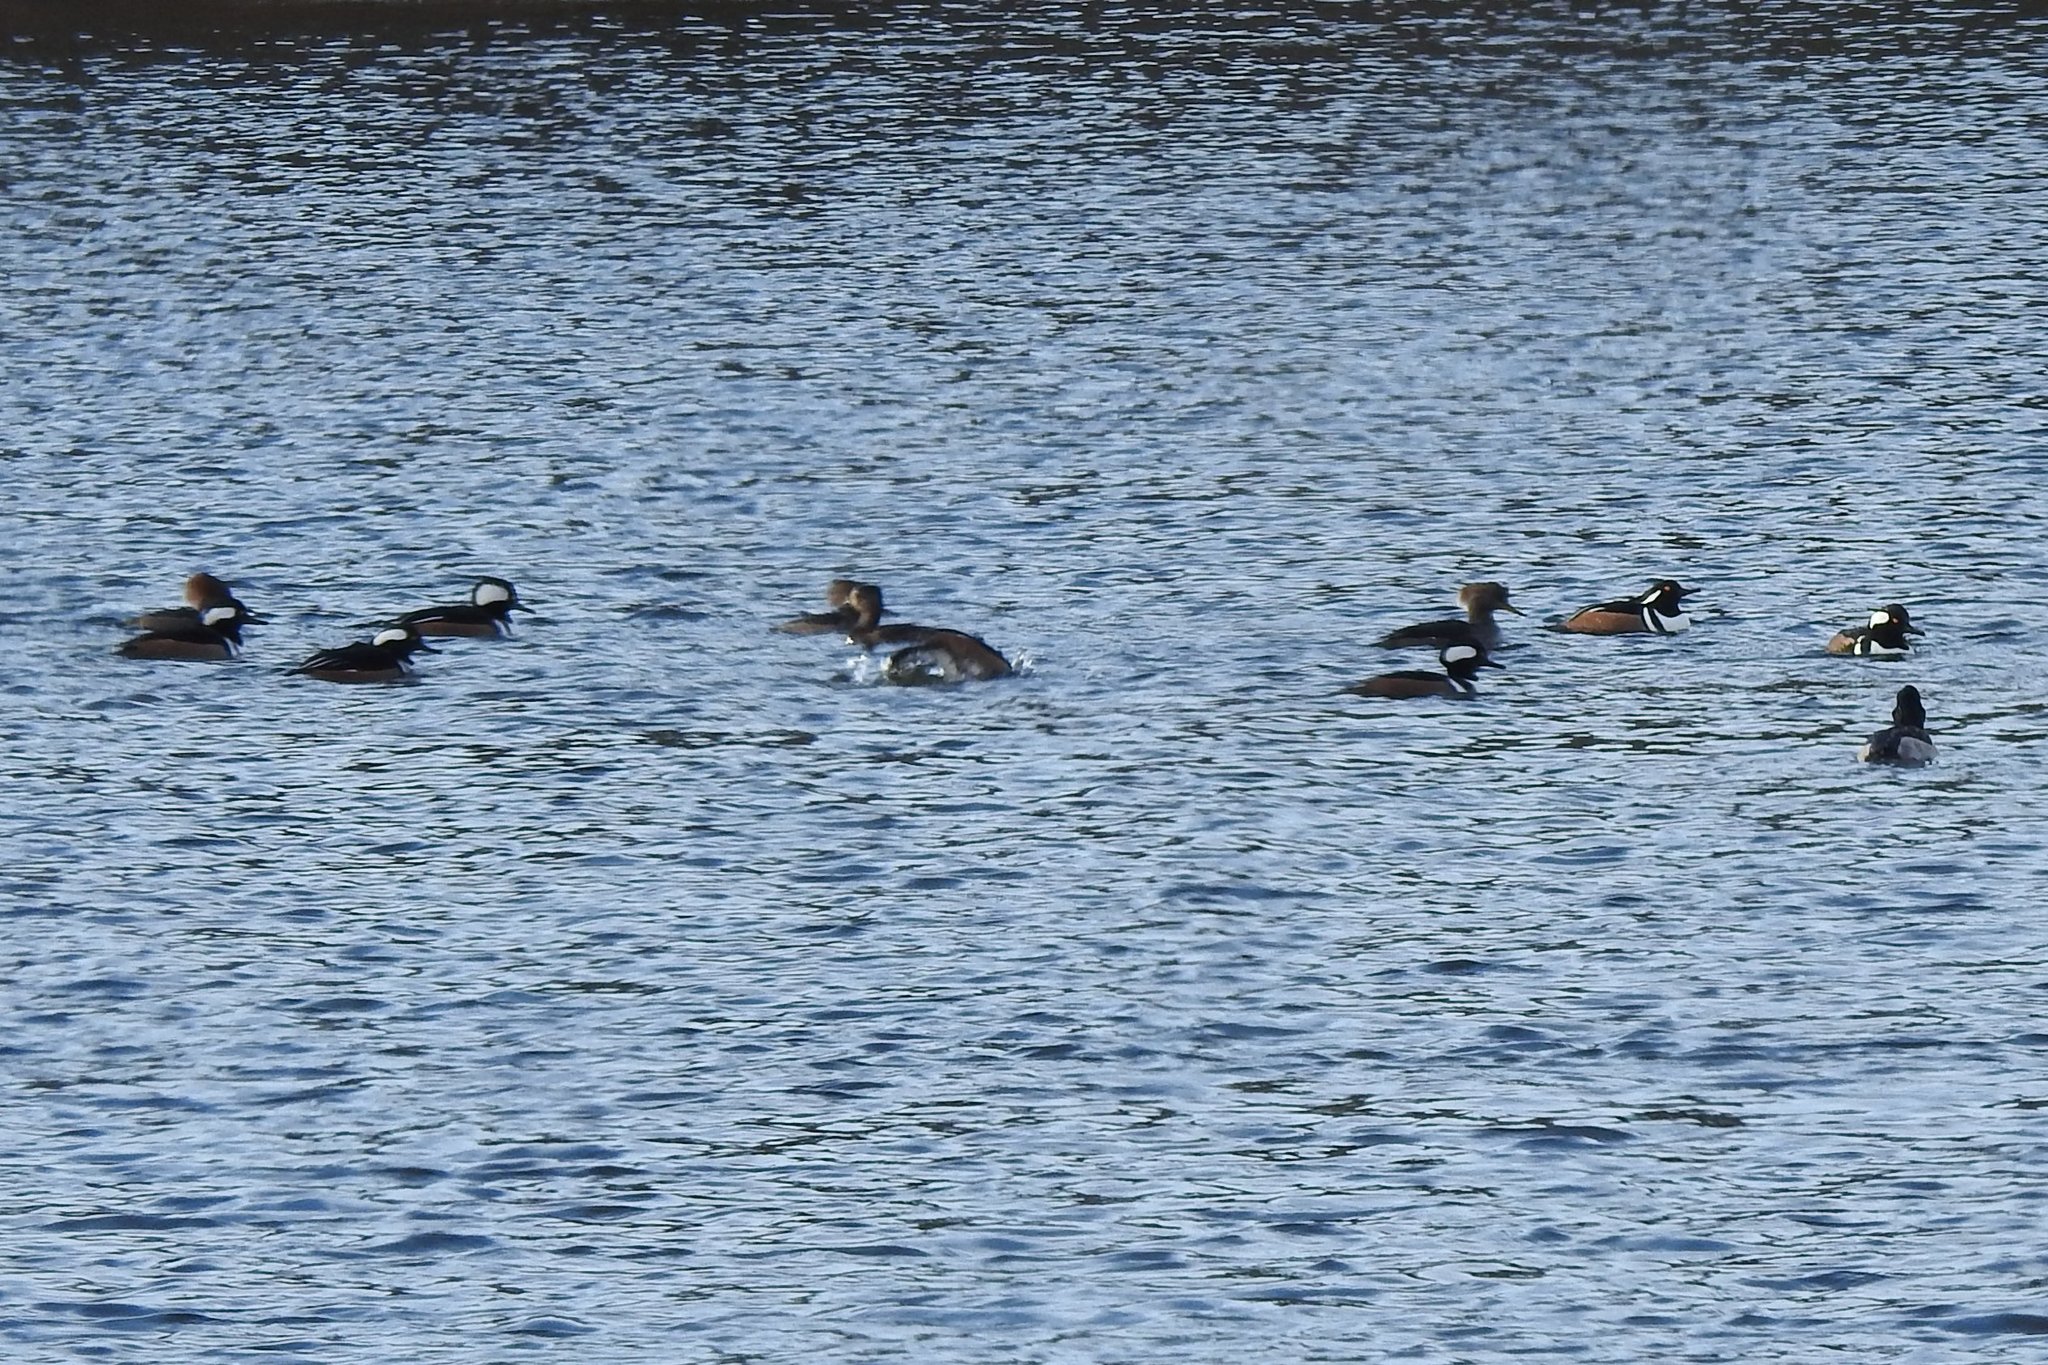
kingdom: Animalia
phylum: Chordata
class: Aves
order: Anseriformes
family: Anatidae
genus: Lophodytes
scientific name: Lophodytes cucullatus
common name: Hooded merganser
